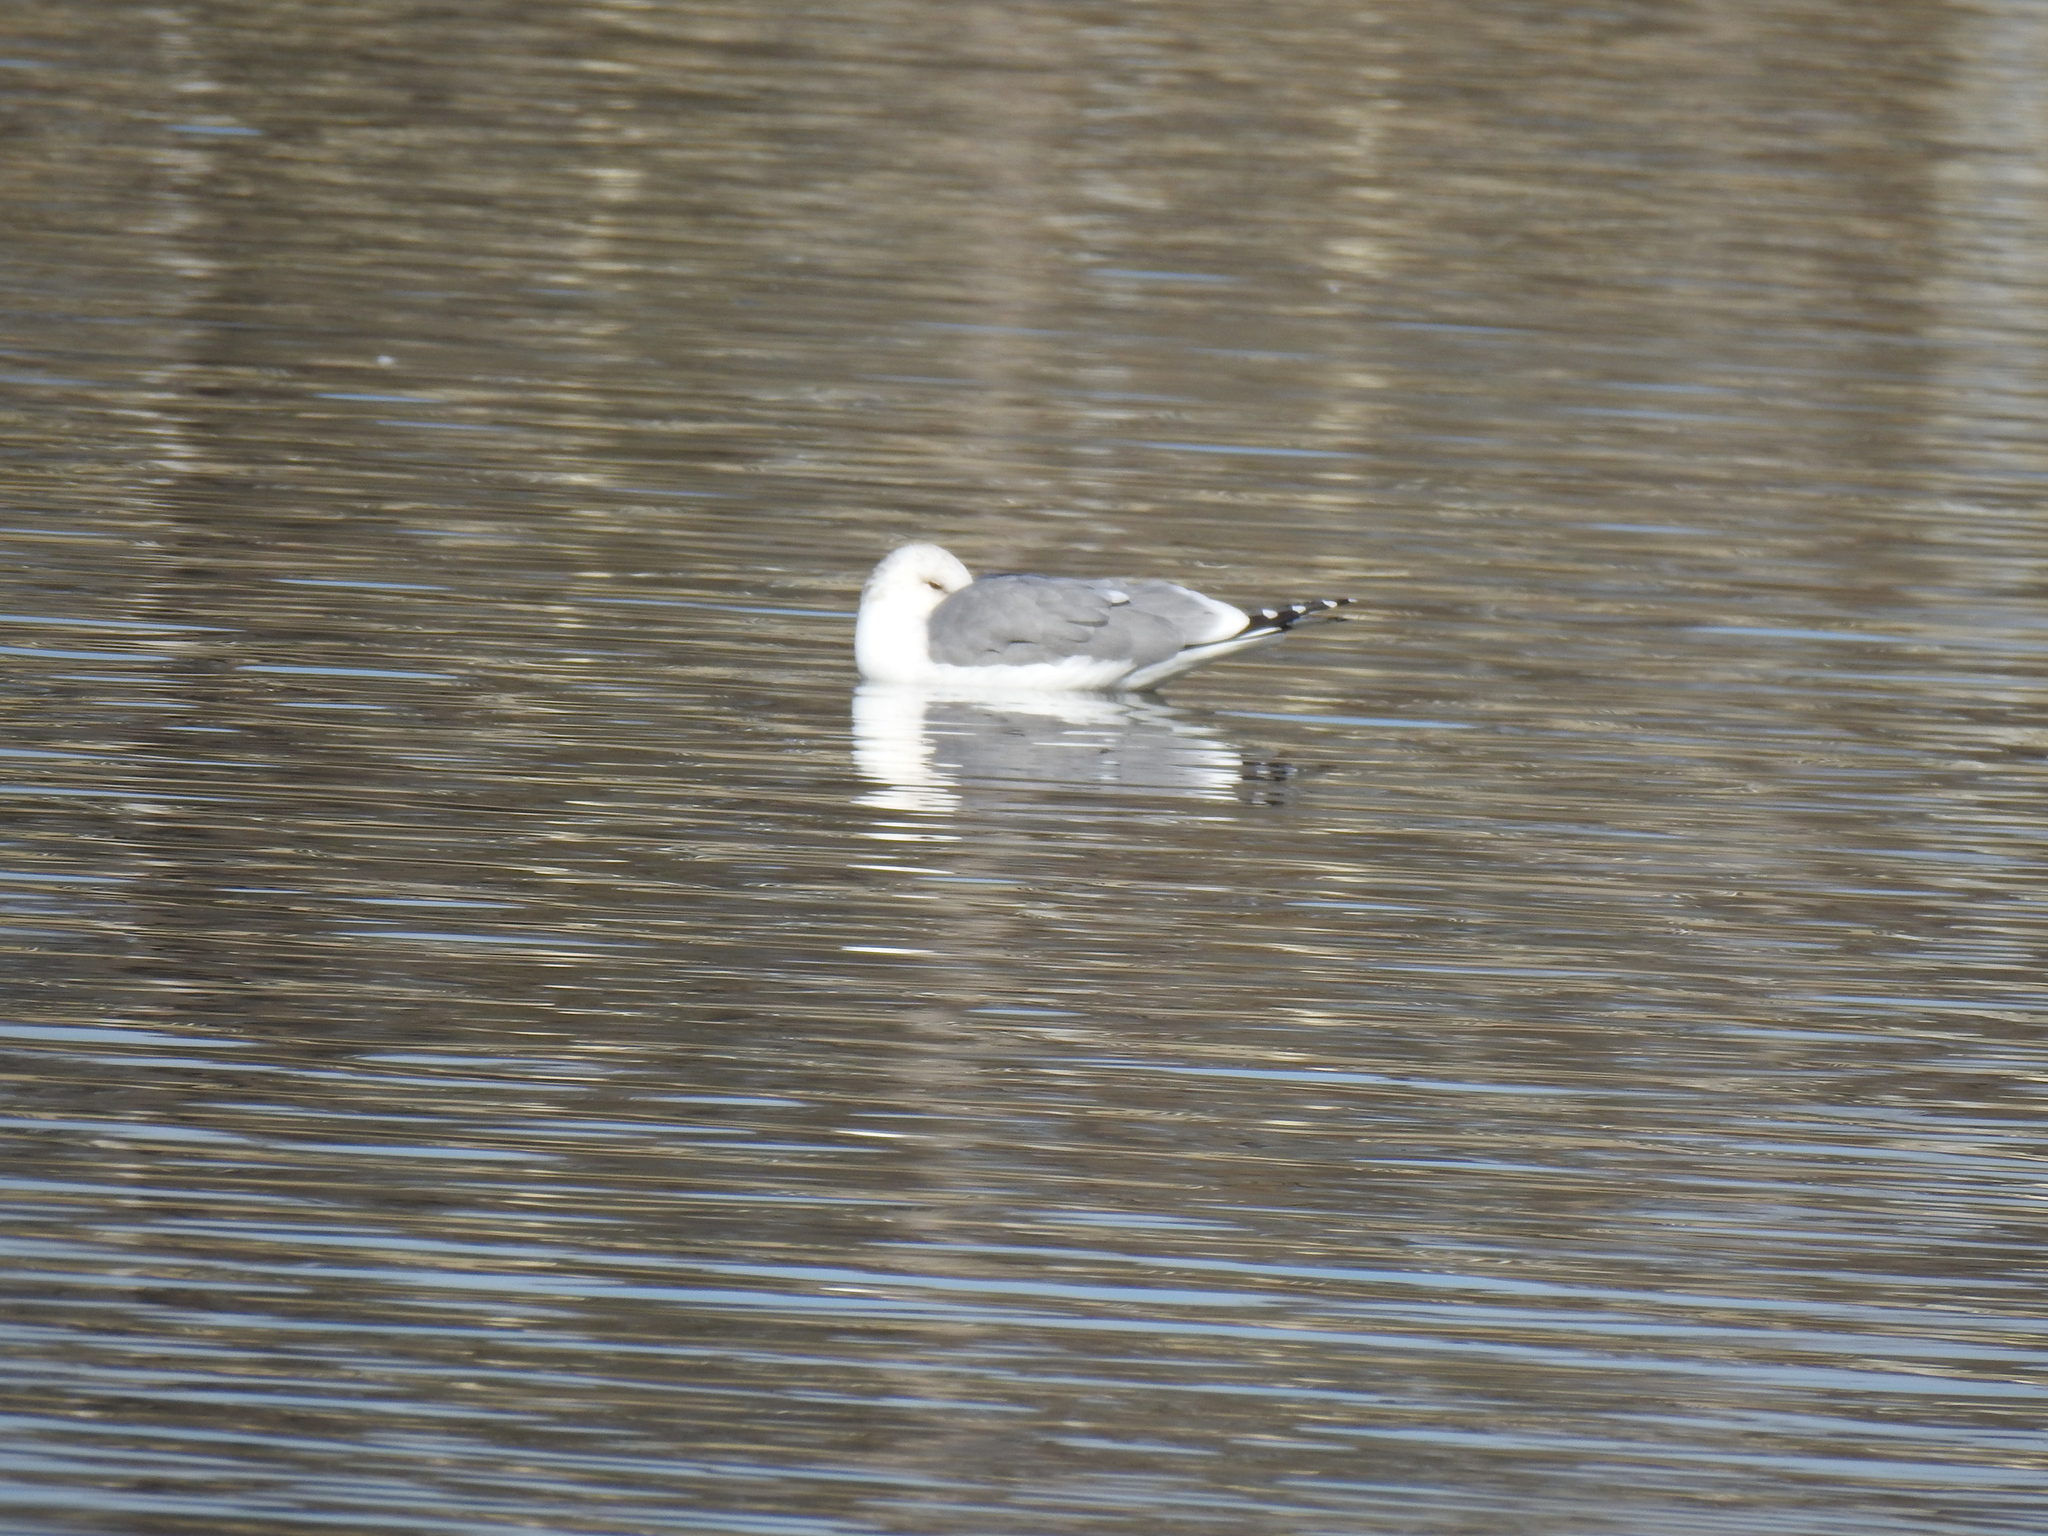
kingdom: Animalia
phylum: Chordata
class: Aves
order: Charadriiformes
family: Laridae
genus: Larus
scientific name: Larus californicus
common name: California gull
